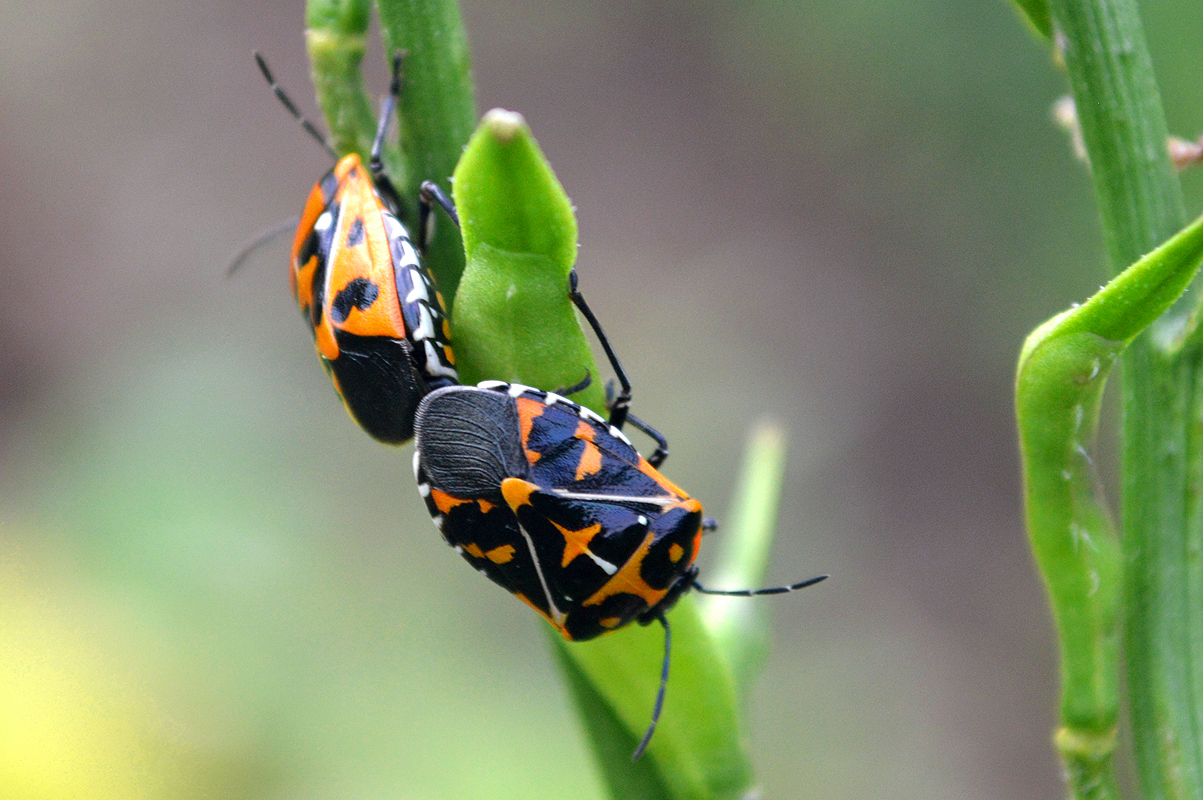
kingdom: Animalia
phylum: Arthropoda
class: Insecta
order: Hemiptera
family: Pentatomidae
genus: Murgantia
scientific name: Murgantia histrionica
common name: Harlequin bug
